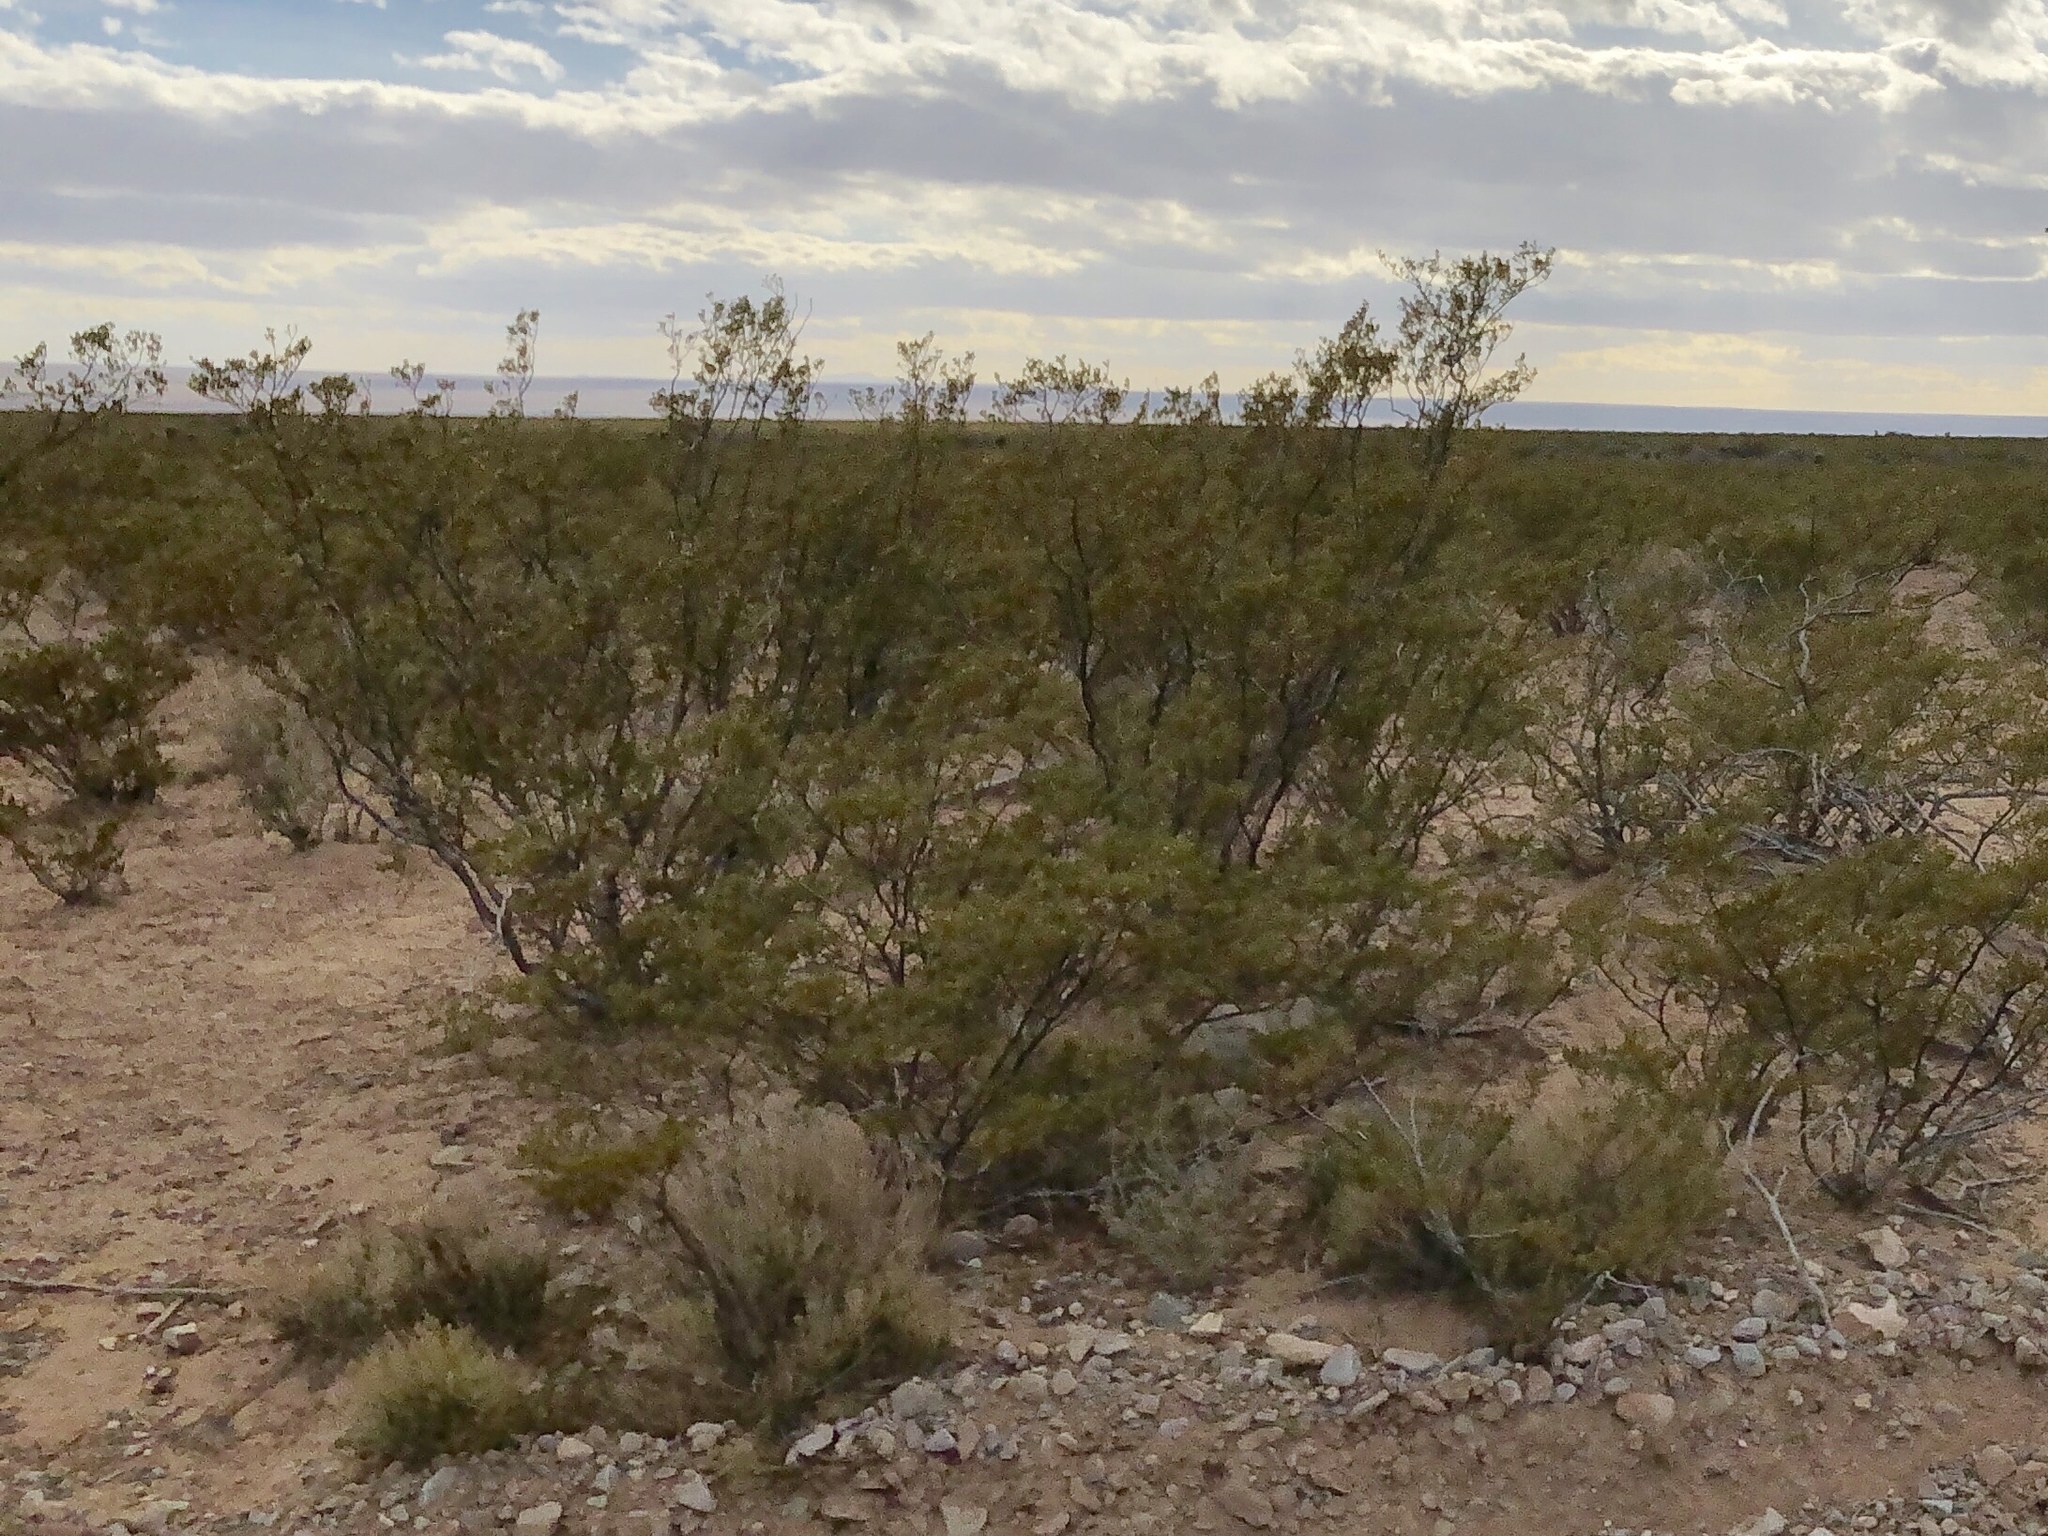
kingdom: Plantae
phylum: Tracheophyta
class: Magnoliopsida
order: Zygophyllales
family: Zygophyllaceae
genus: Larrea
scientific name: Larrea tridentata
